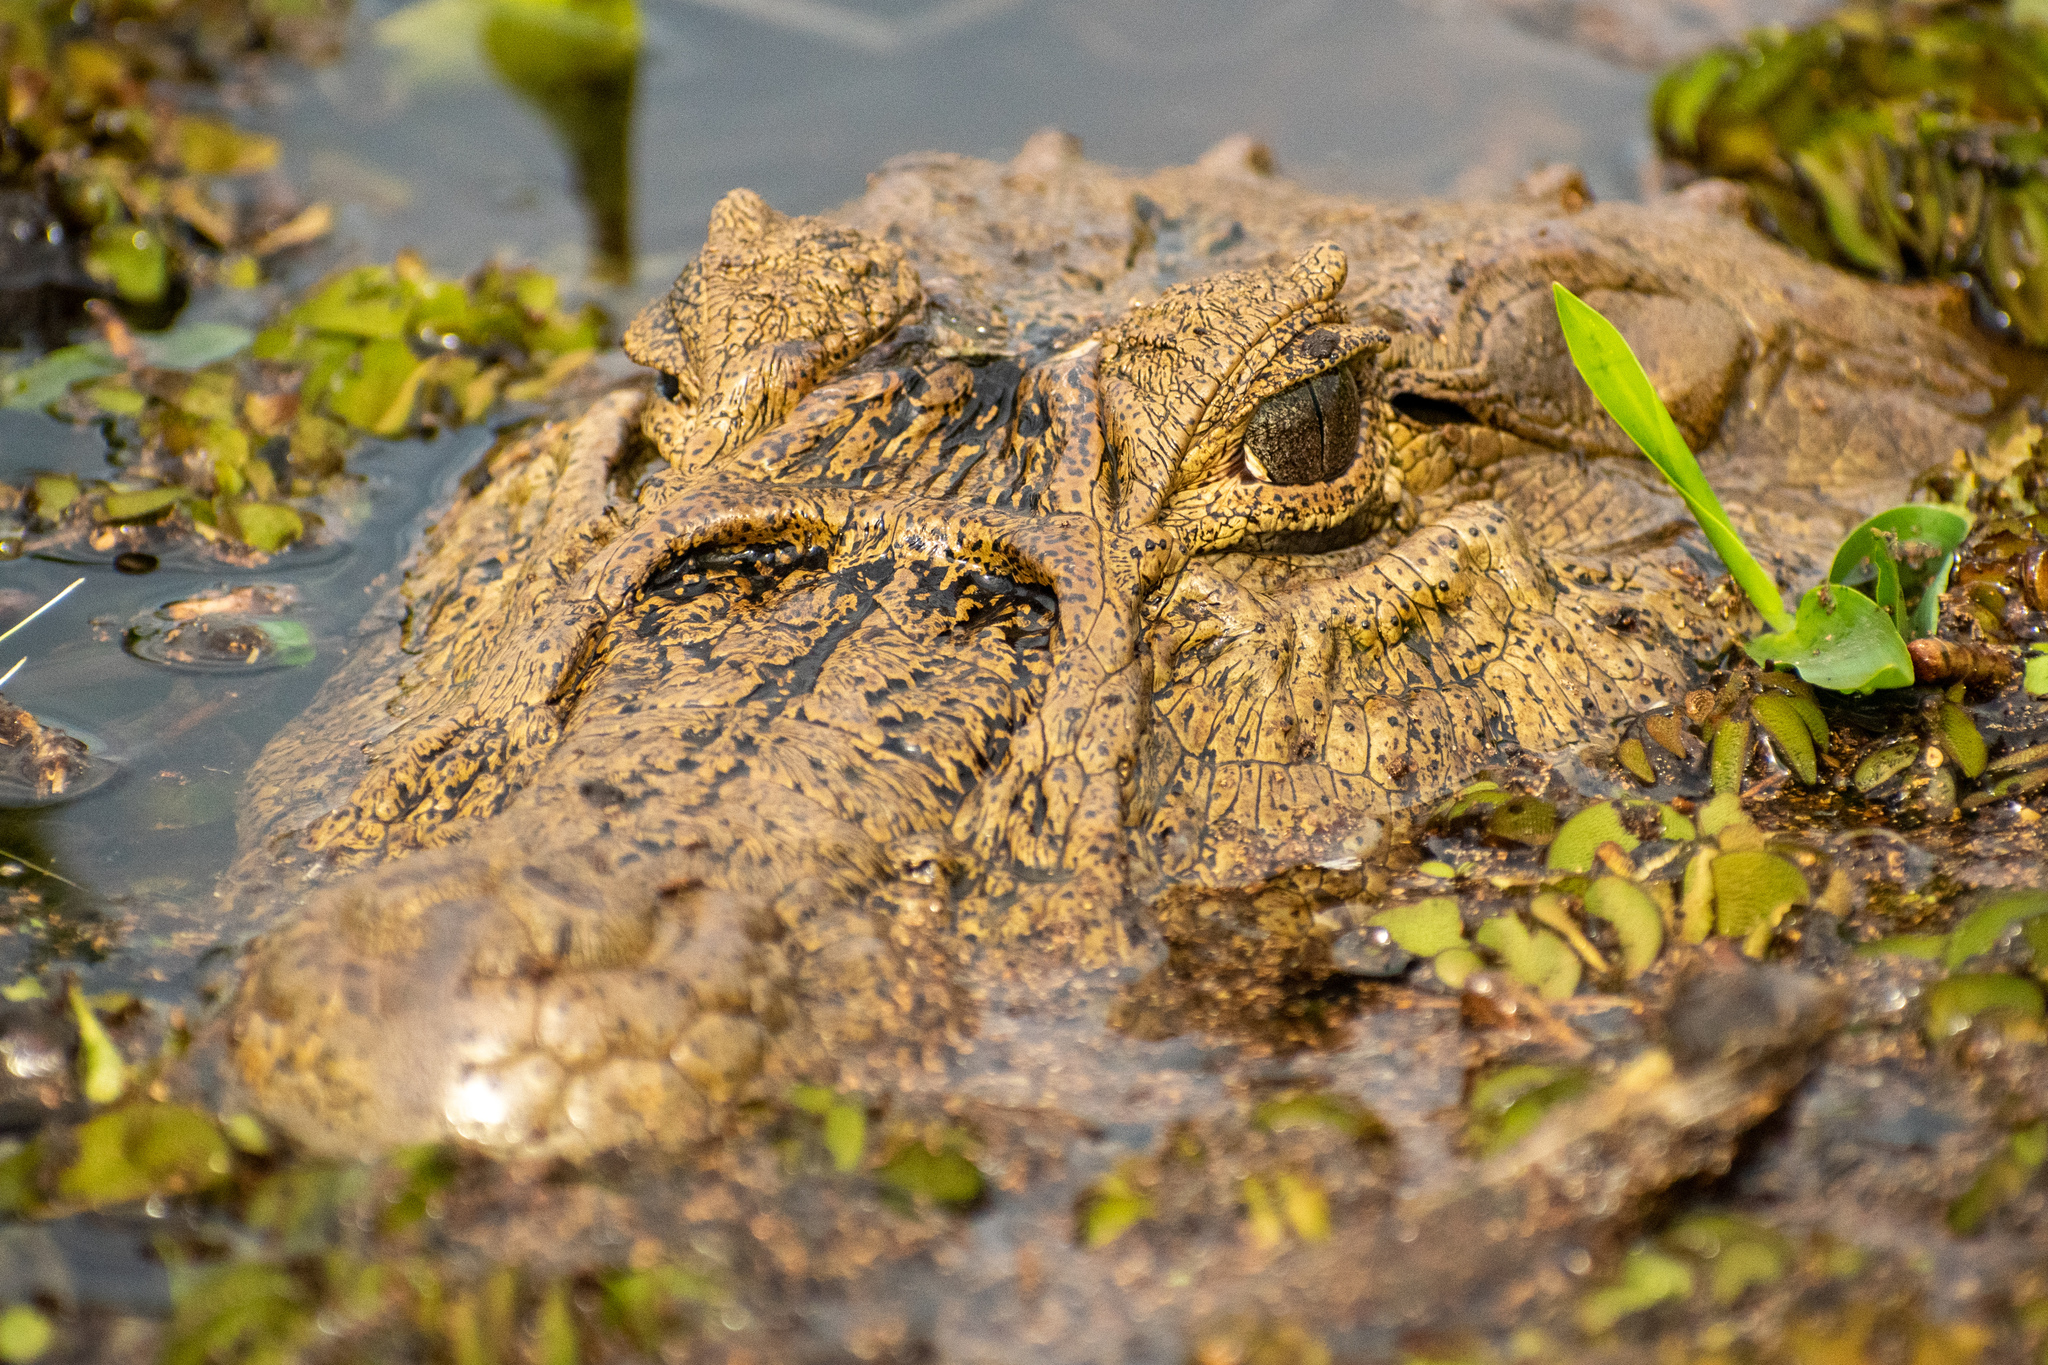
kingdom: Animalia
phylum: Chordata
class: Crocodylia
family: Alligatoridae
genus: Caiman
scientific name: Caiman latirostris
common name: Broad-snouted caiman
